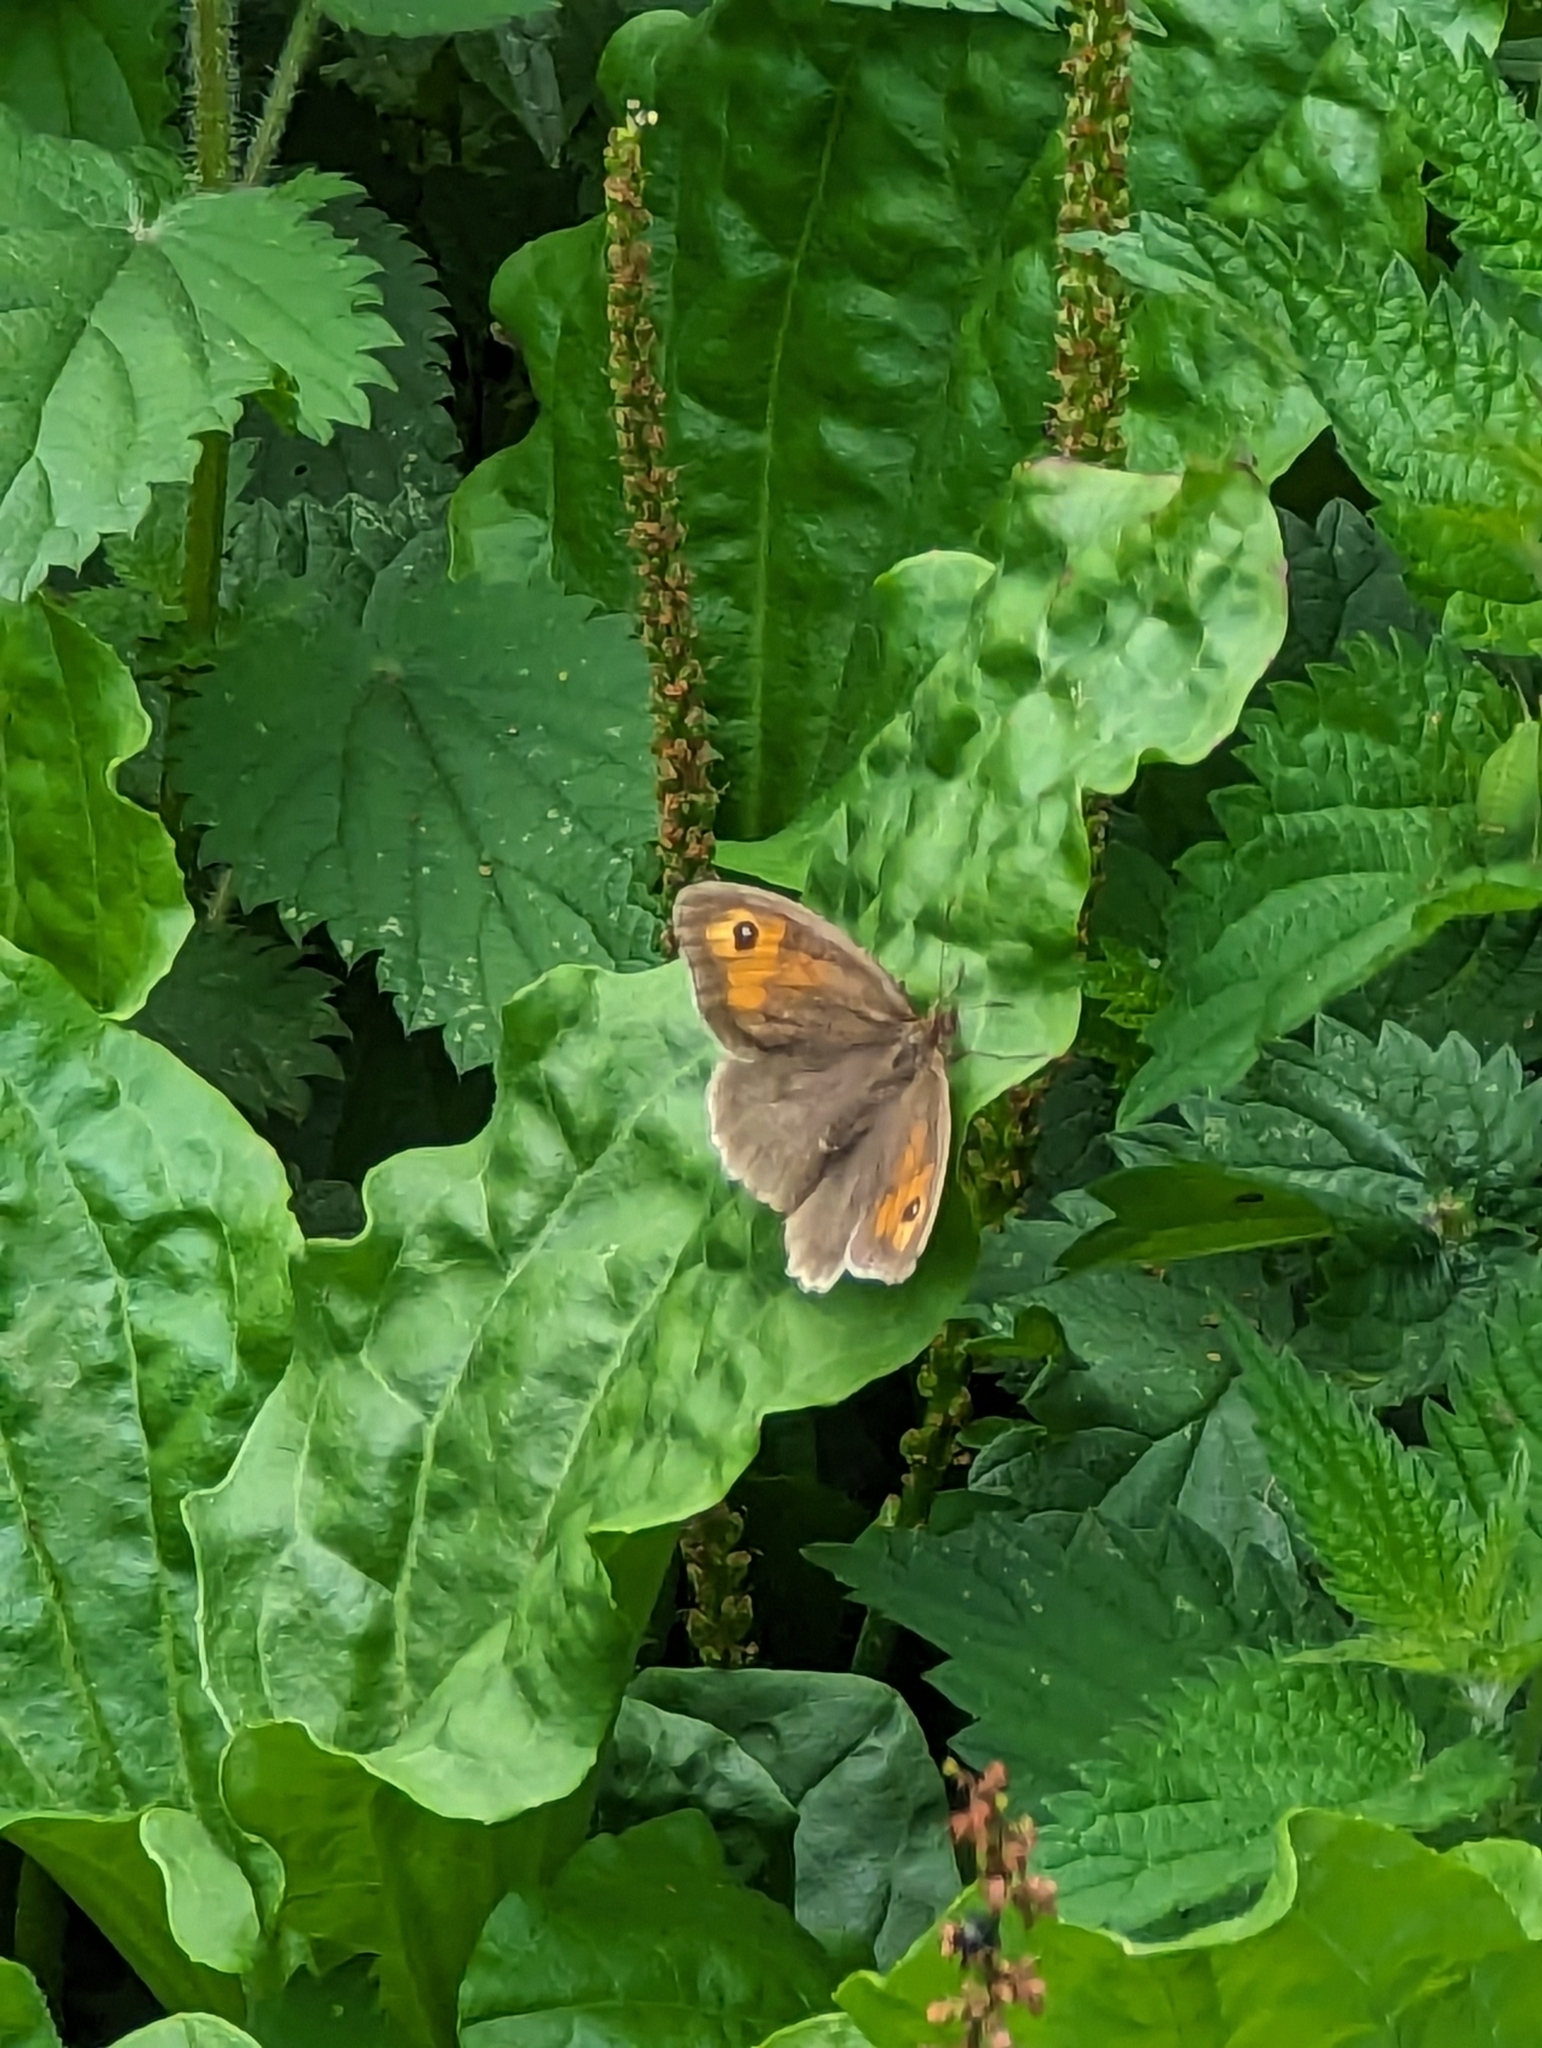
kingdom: Animalia
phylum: Arthropoda
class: Insecta
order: Lepidoptera
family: Nymphalidae
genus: Maniola
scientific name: Maniola jurtina
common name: Meadow brown
